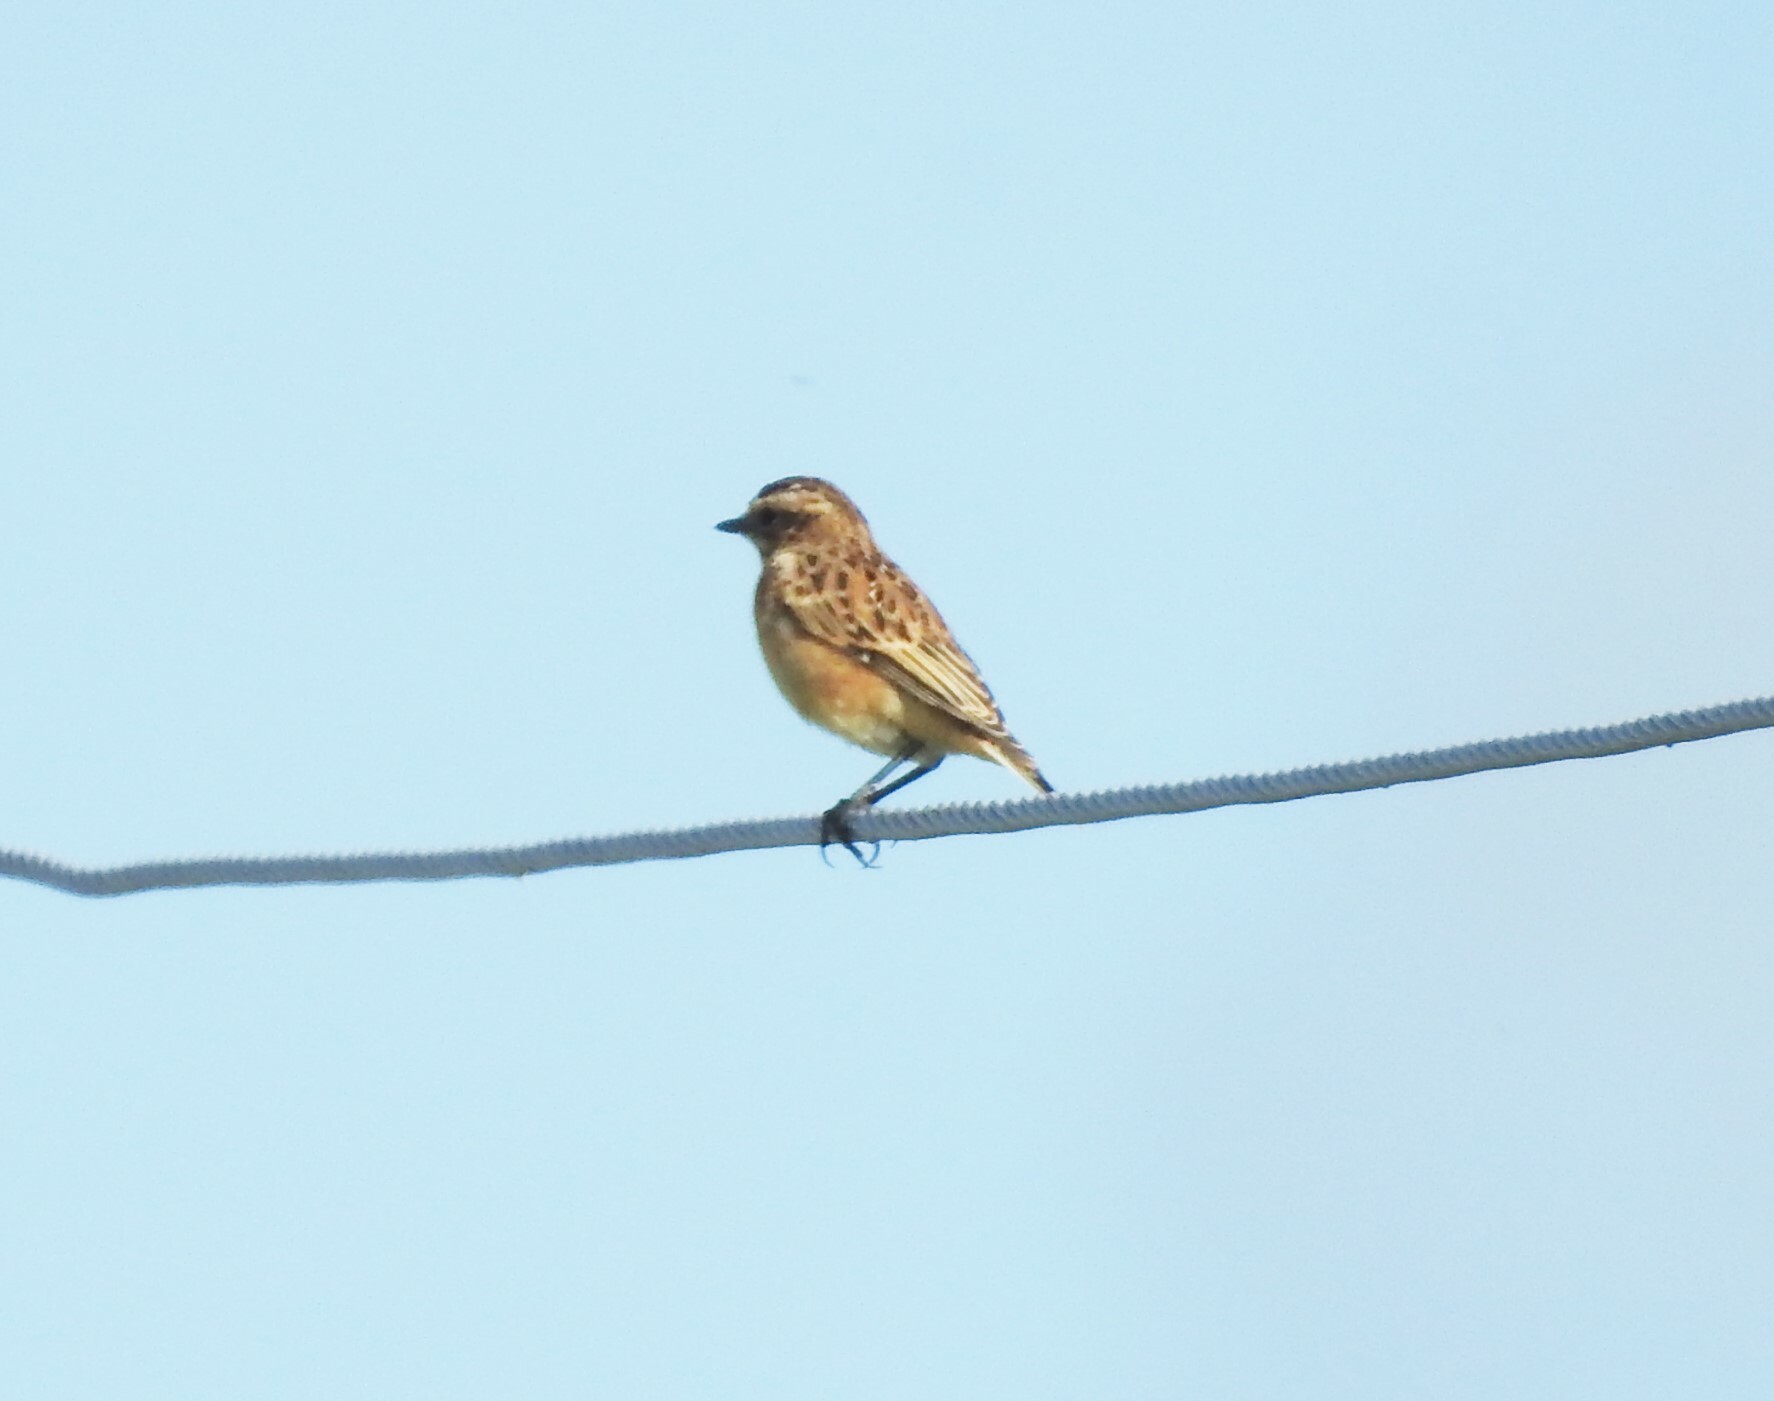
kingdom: Animalia
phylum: Chordata
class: Aves
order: Passeriformes
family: Muscicapidae
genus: Saxicola
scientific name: Saxicola rubetra
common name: Whinchat
